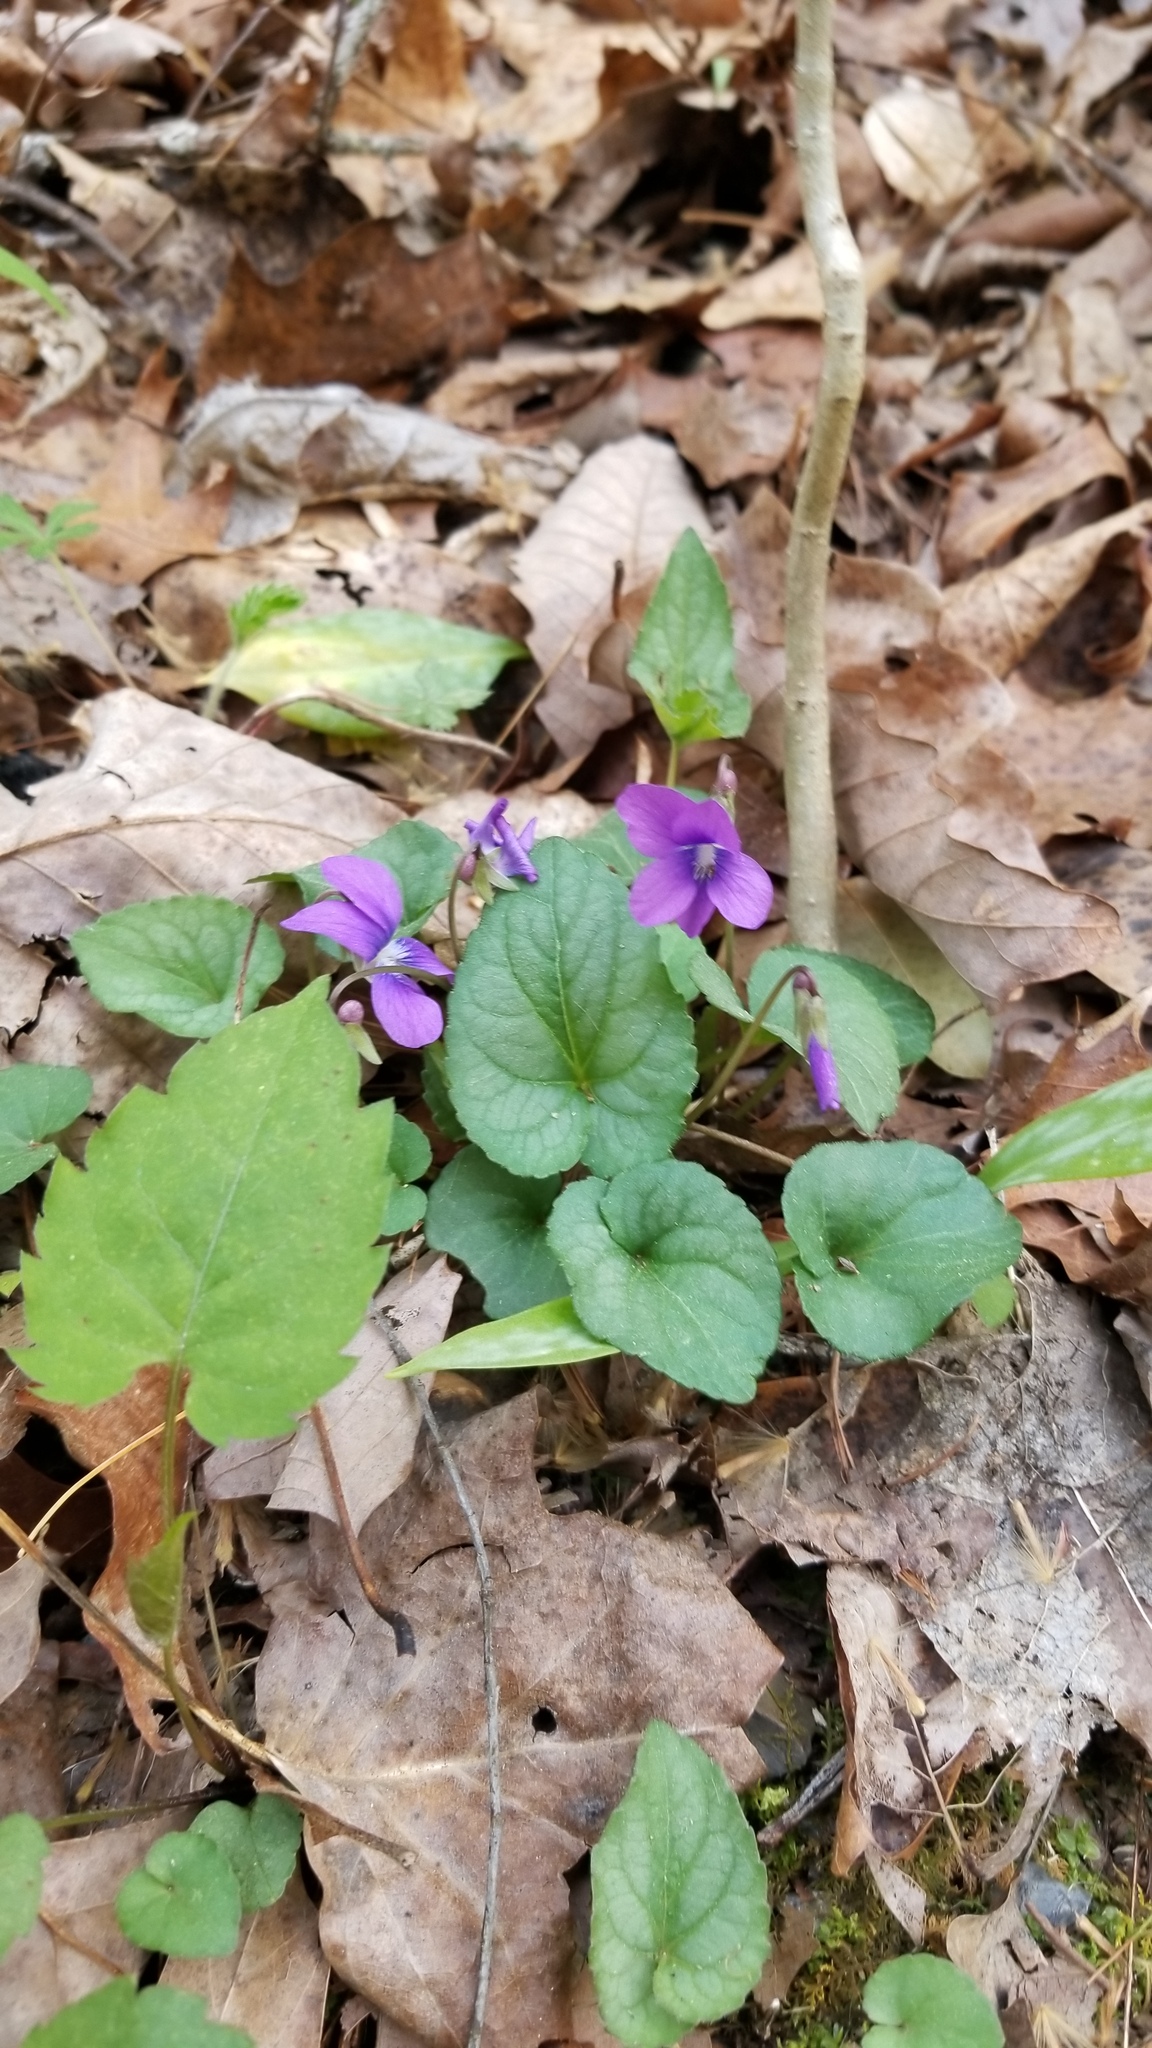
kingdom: Plantae
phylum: Tracheophyta
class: Magnoliopsida
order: Malpighiales
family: Violaceae
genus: Viola
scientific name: Viola hirsutula
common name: Southern wood violet
